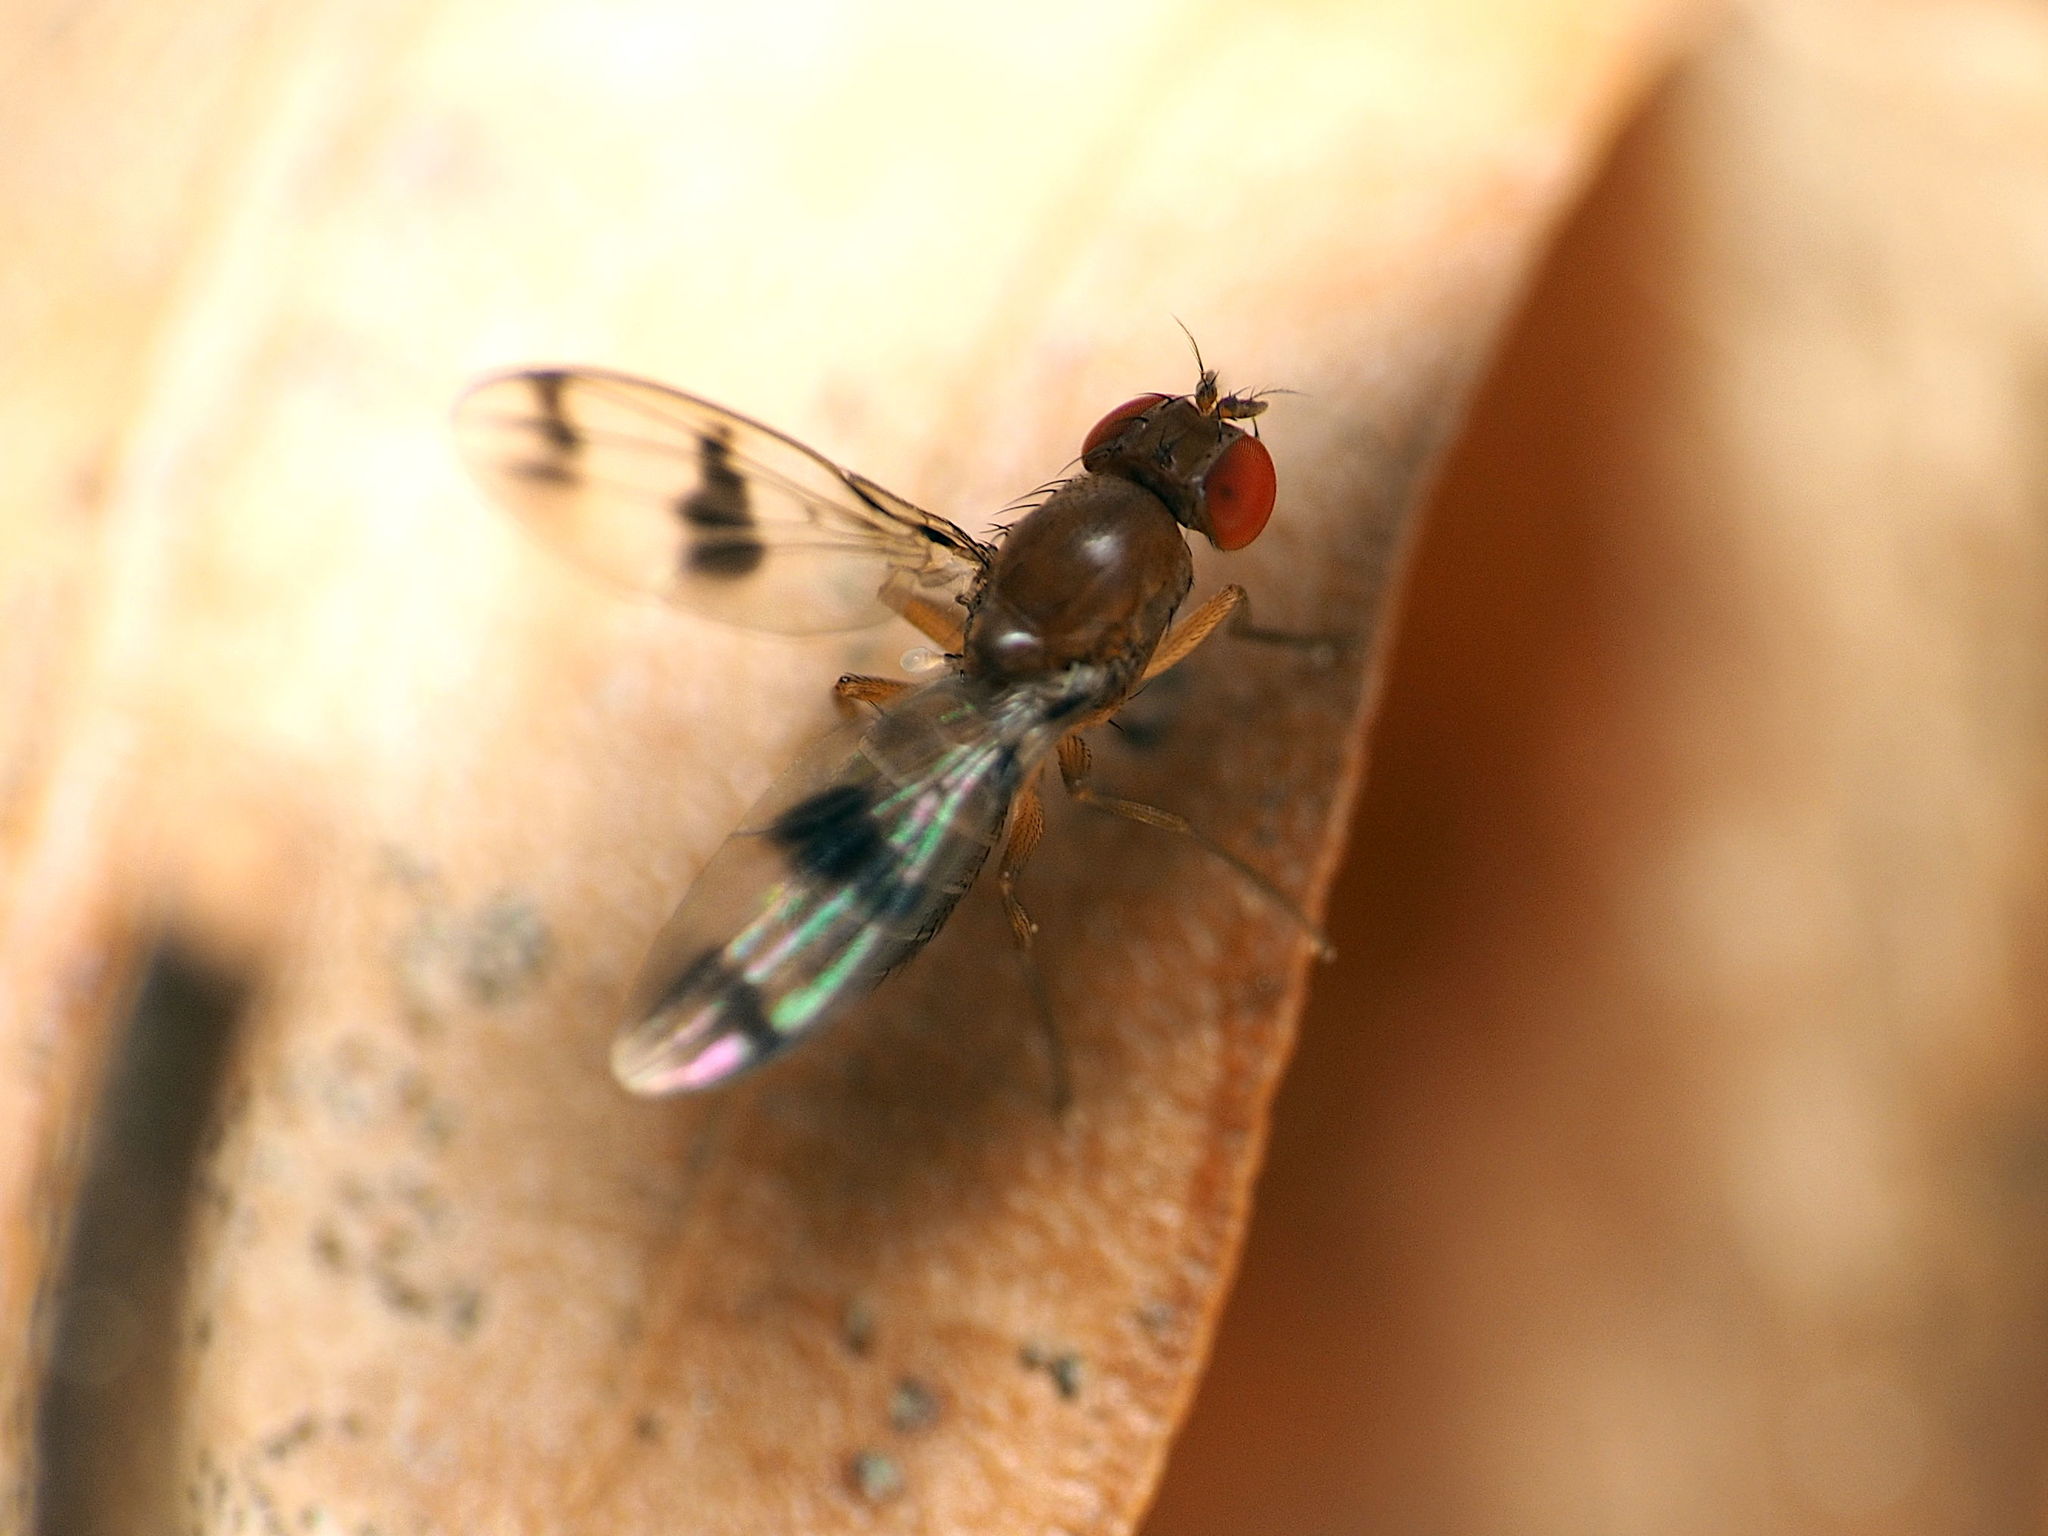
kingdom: Animalia
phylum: Arthropoda
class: Insecta
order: Diptera
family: Drosophilidae
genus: Chymomyza
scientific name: Chymomyza amoena
